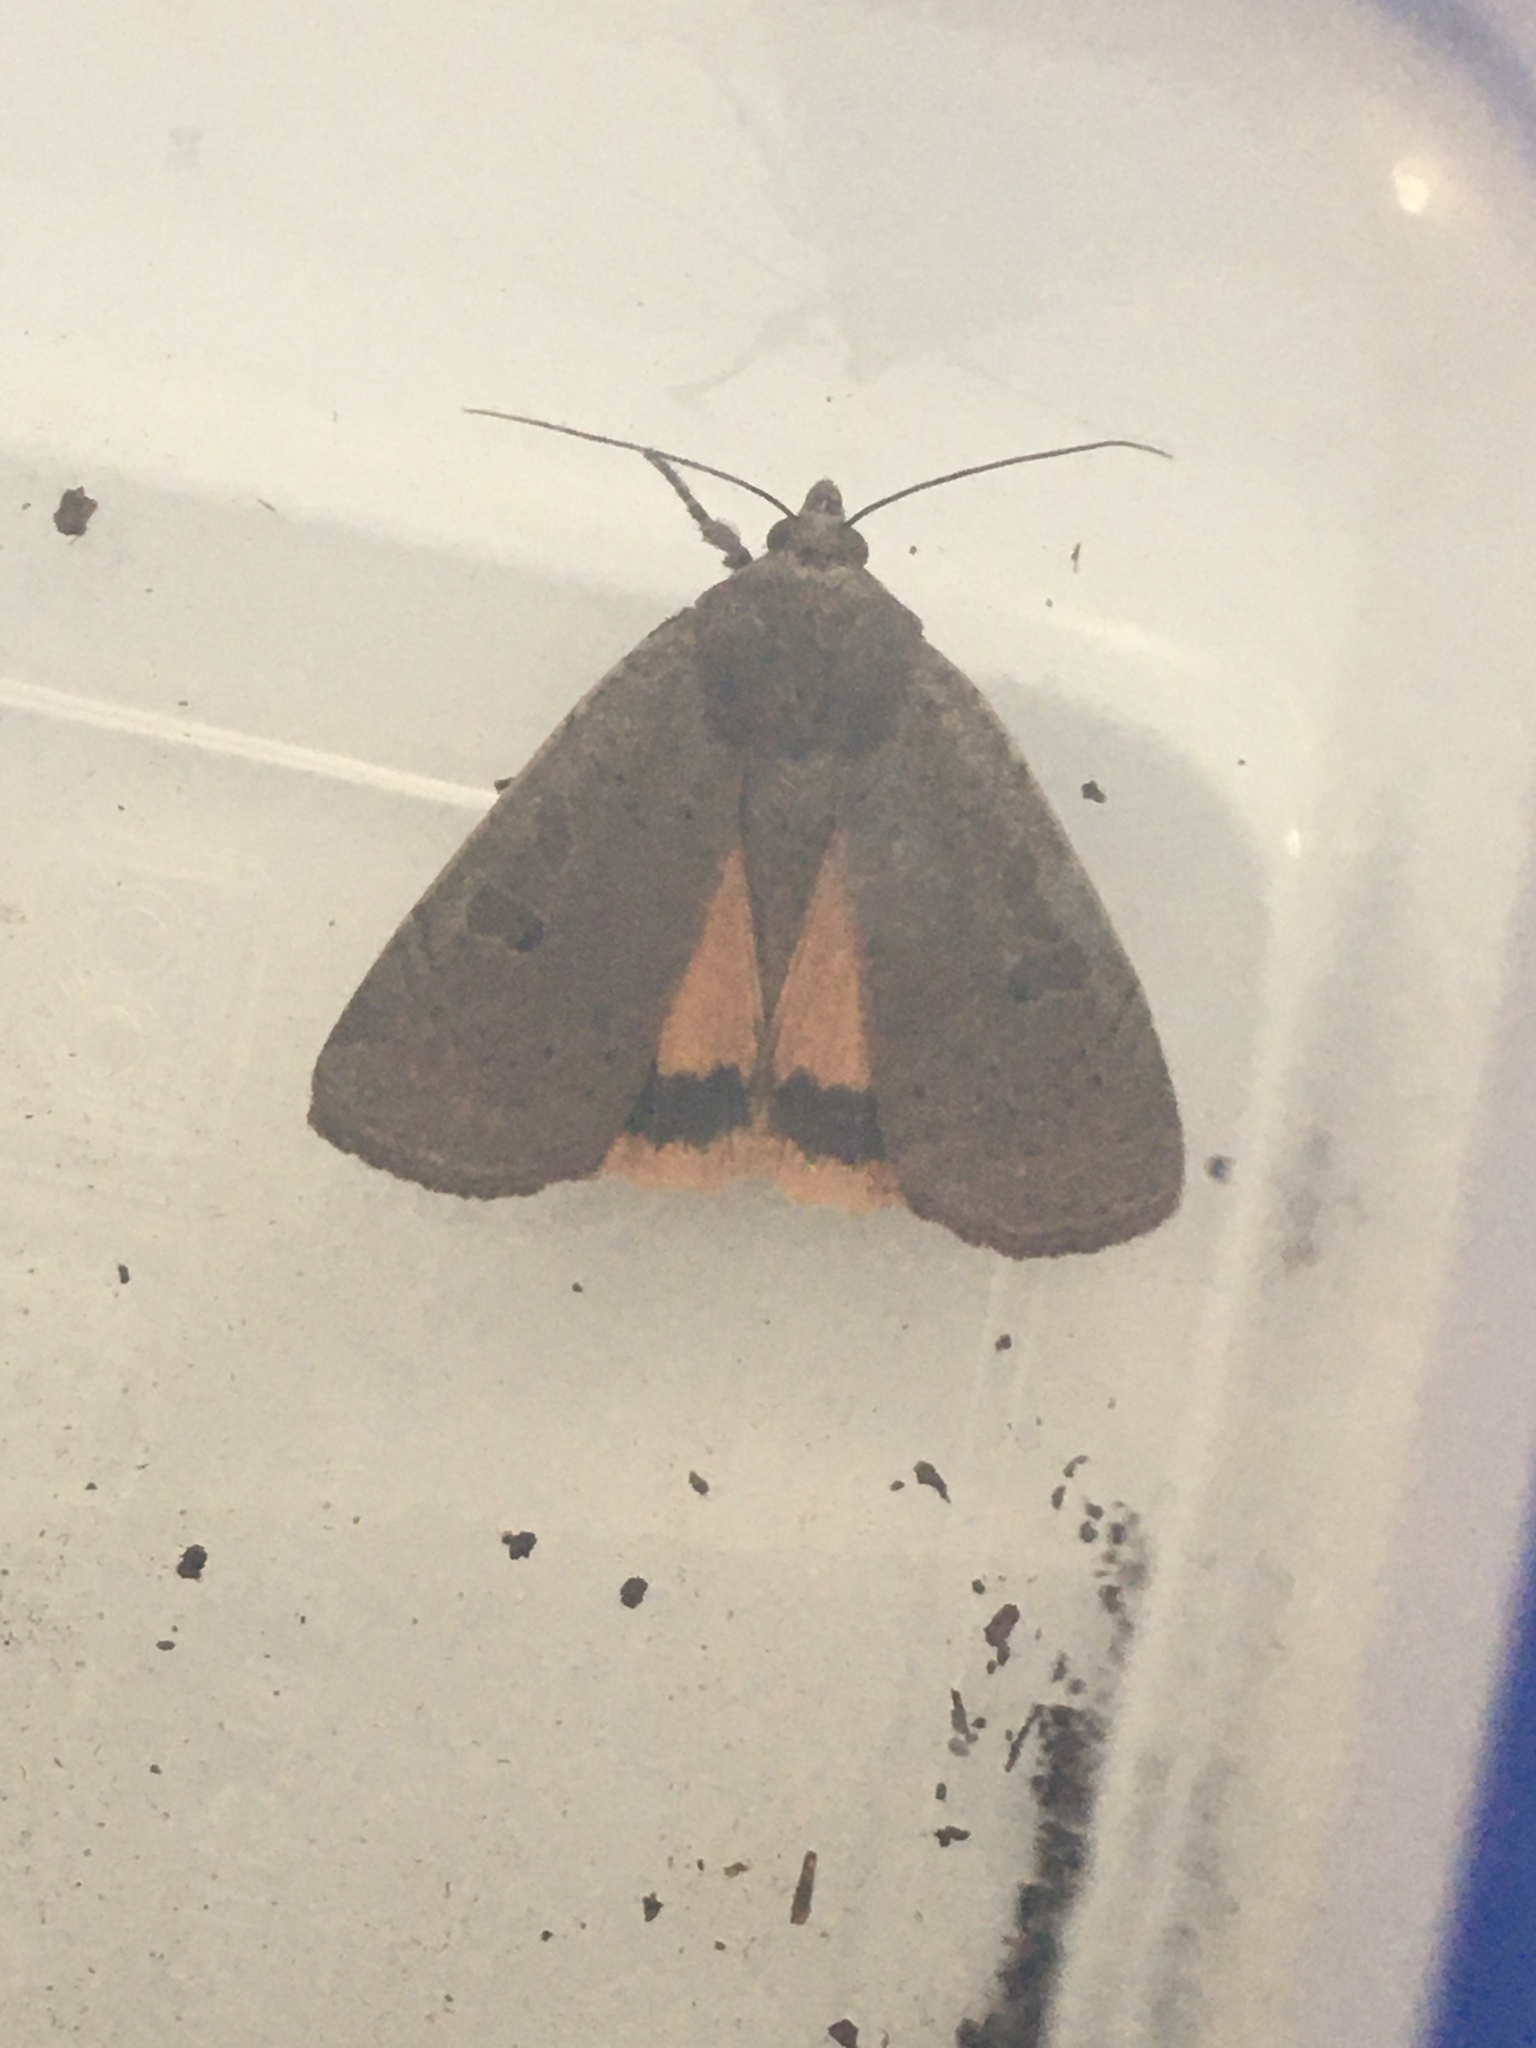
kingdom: Animalia
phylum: Arthropoda
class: Insecta
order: Lepidoptera
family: Noctuidae
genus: Noctua
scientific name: Noctua pronuba
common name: Large yellow underwing
